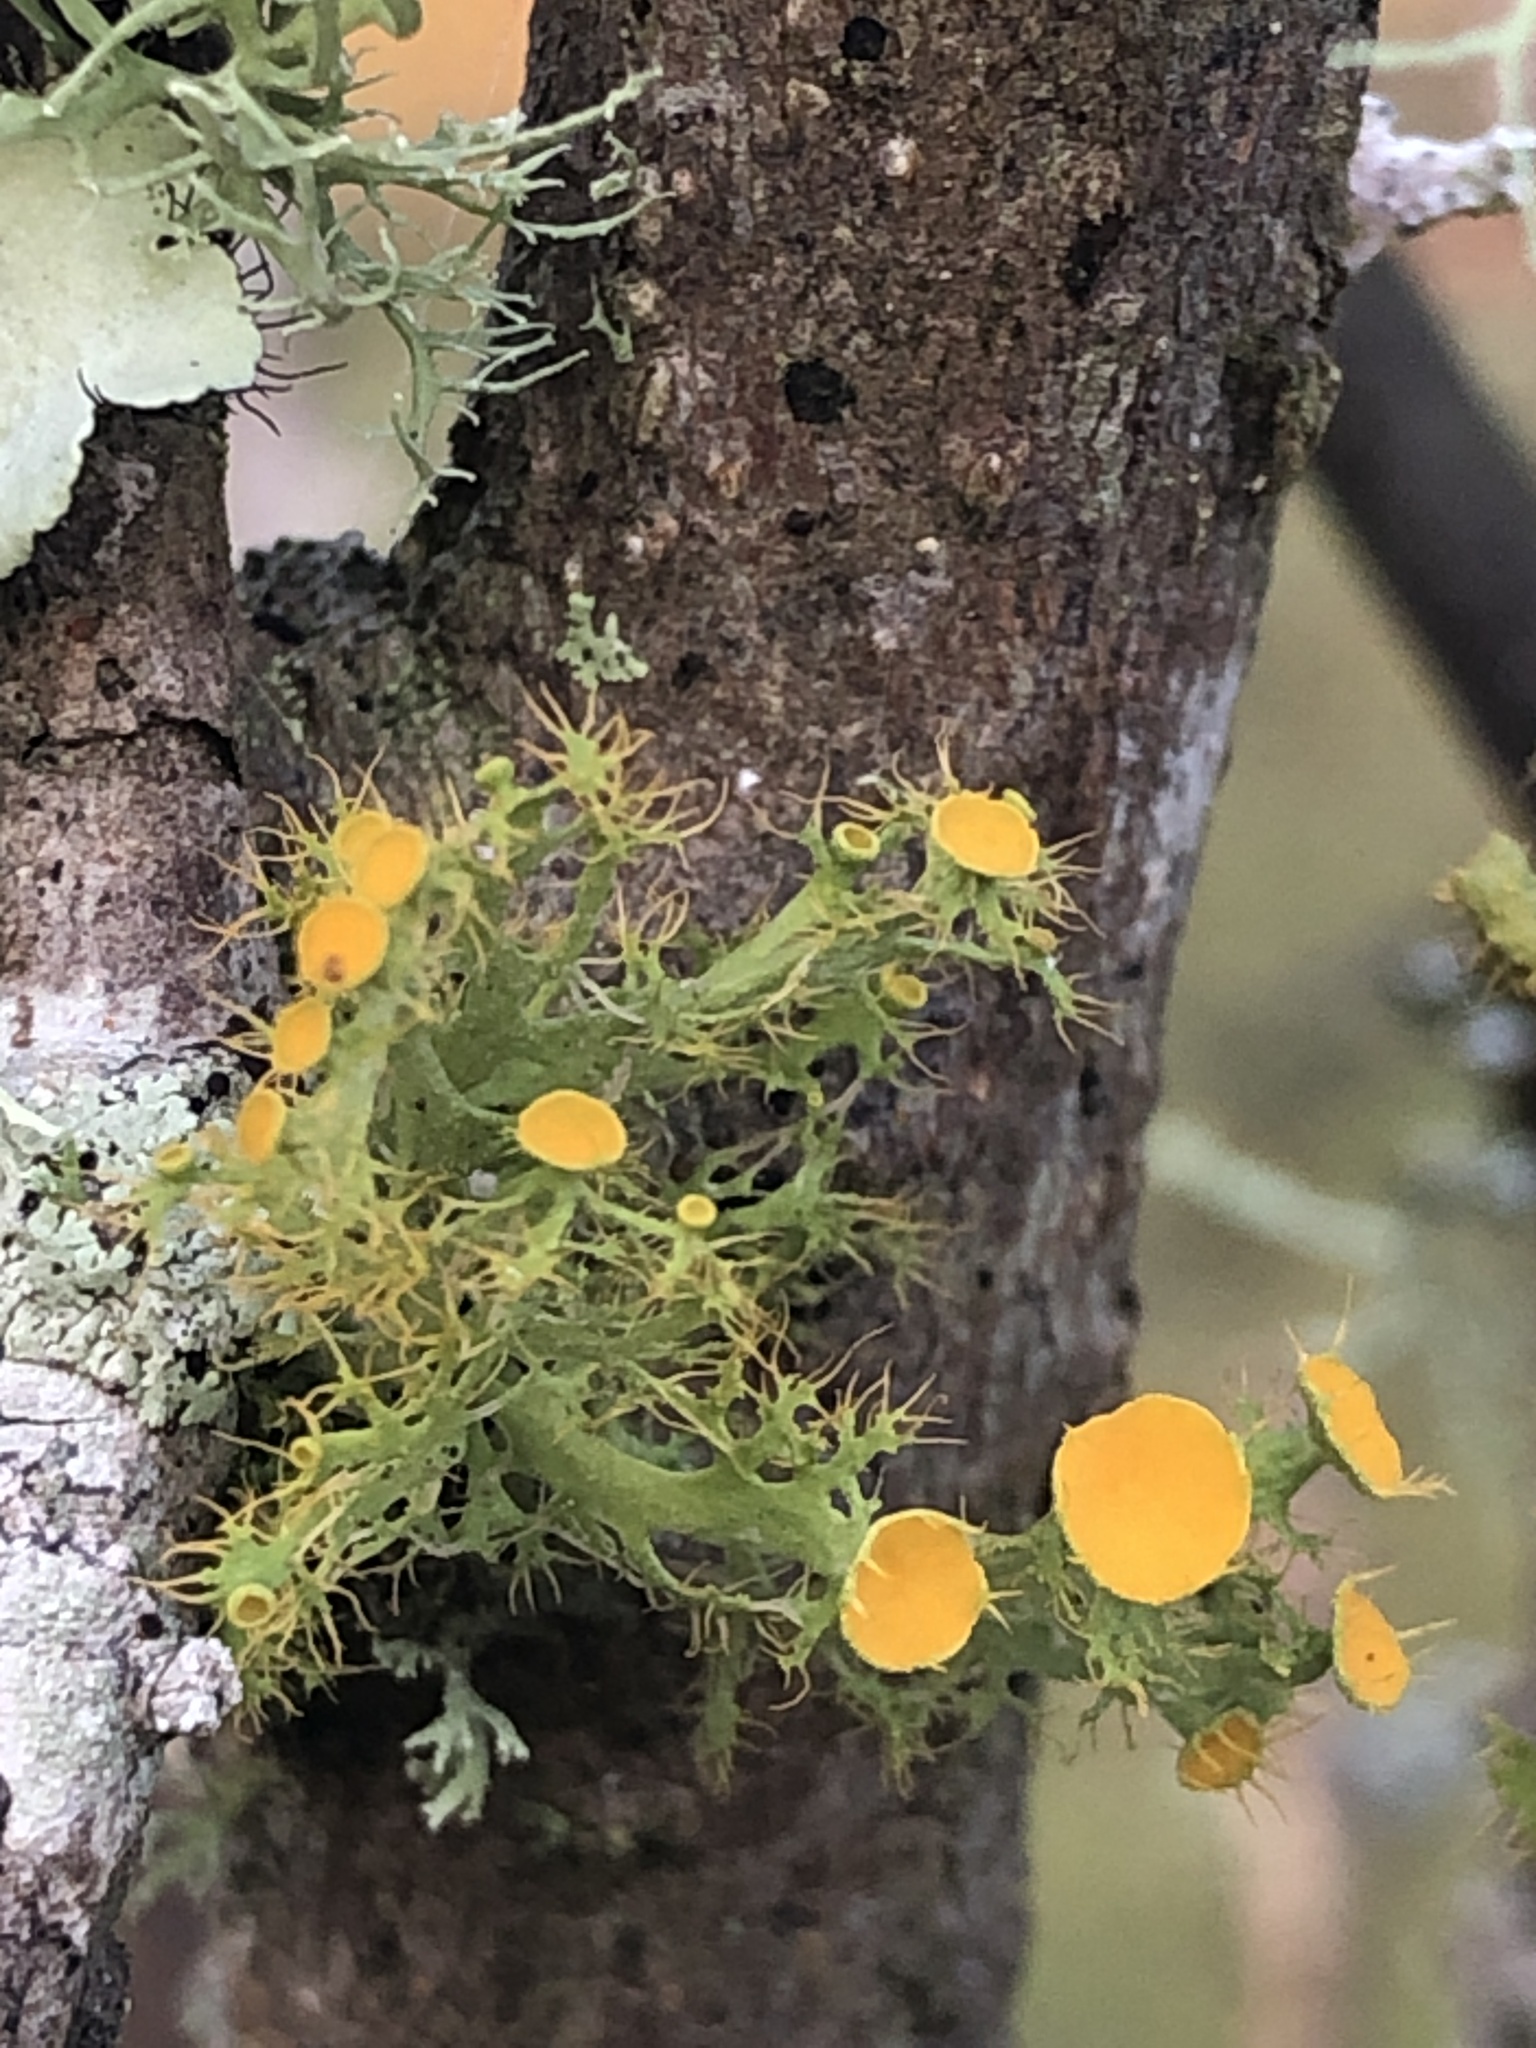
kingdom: Fungi
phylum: Ascomycota
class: Lecanoromycetes
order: Teloschistales
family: Teloschistaceae
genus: Niorma
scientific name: Niorma chrysophthalma
